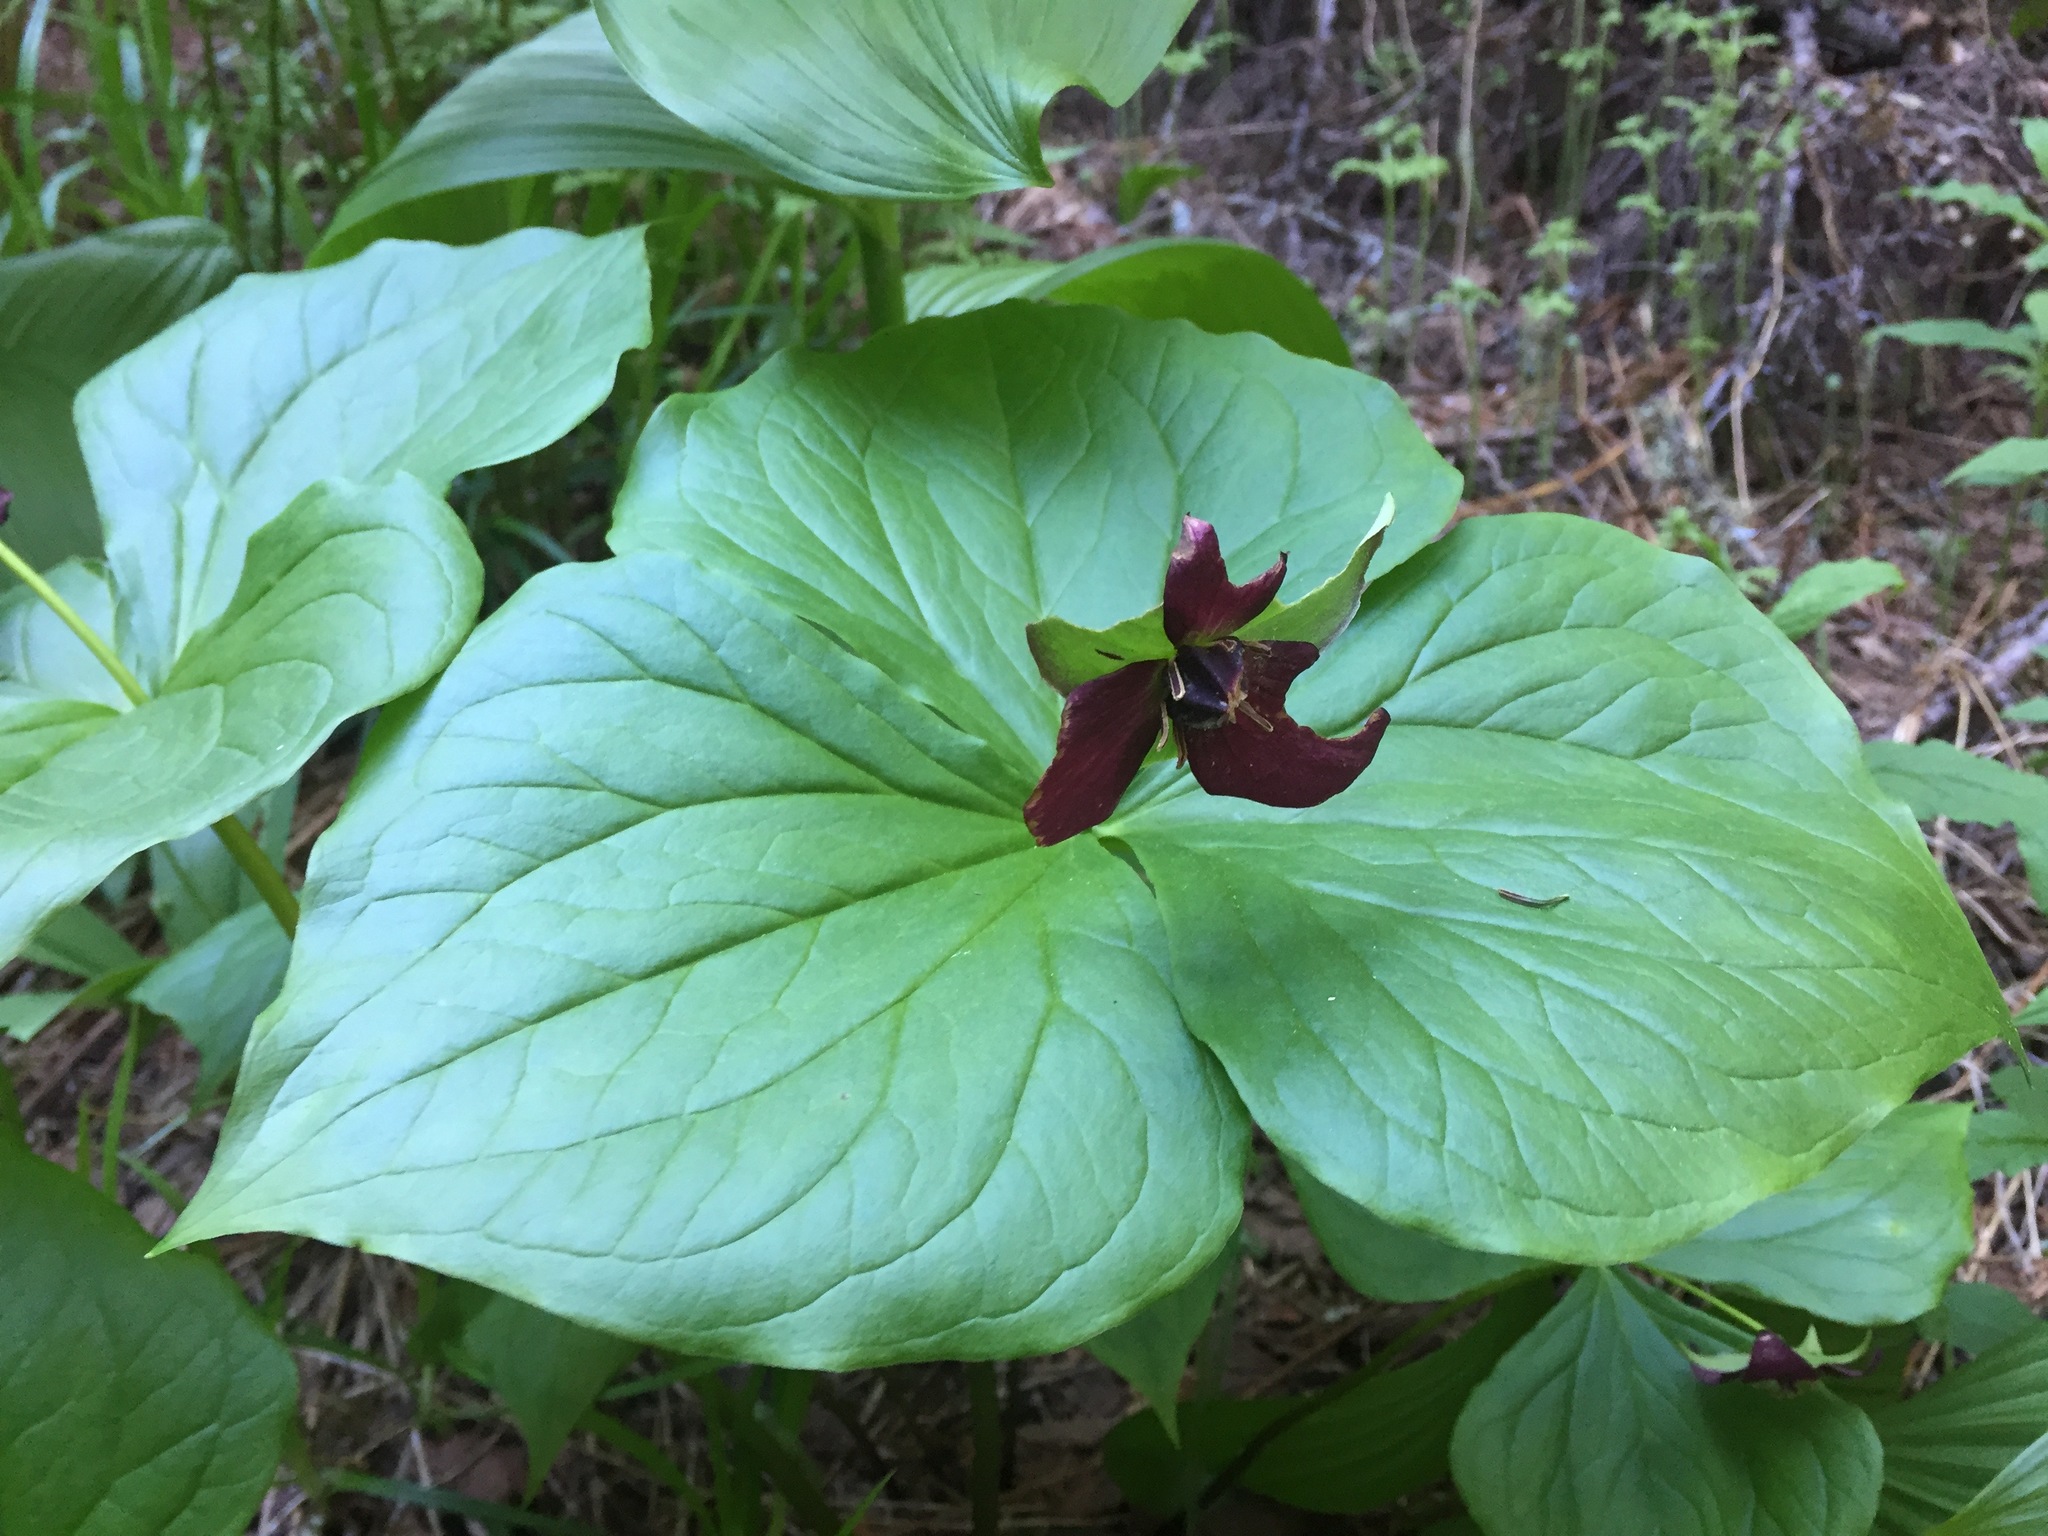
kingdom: Plantae
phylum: Tracheophyta
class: Liliopsida
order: Liliales
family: Melanthiaceae
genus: Trillium
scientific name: Trillium erectum
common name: Purple trillium
